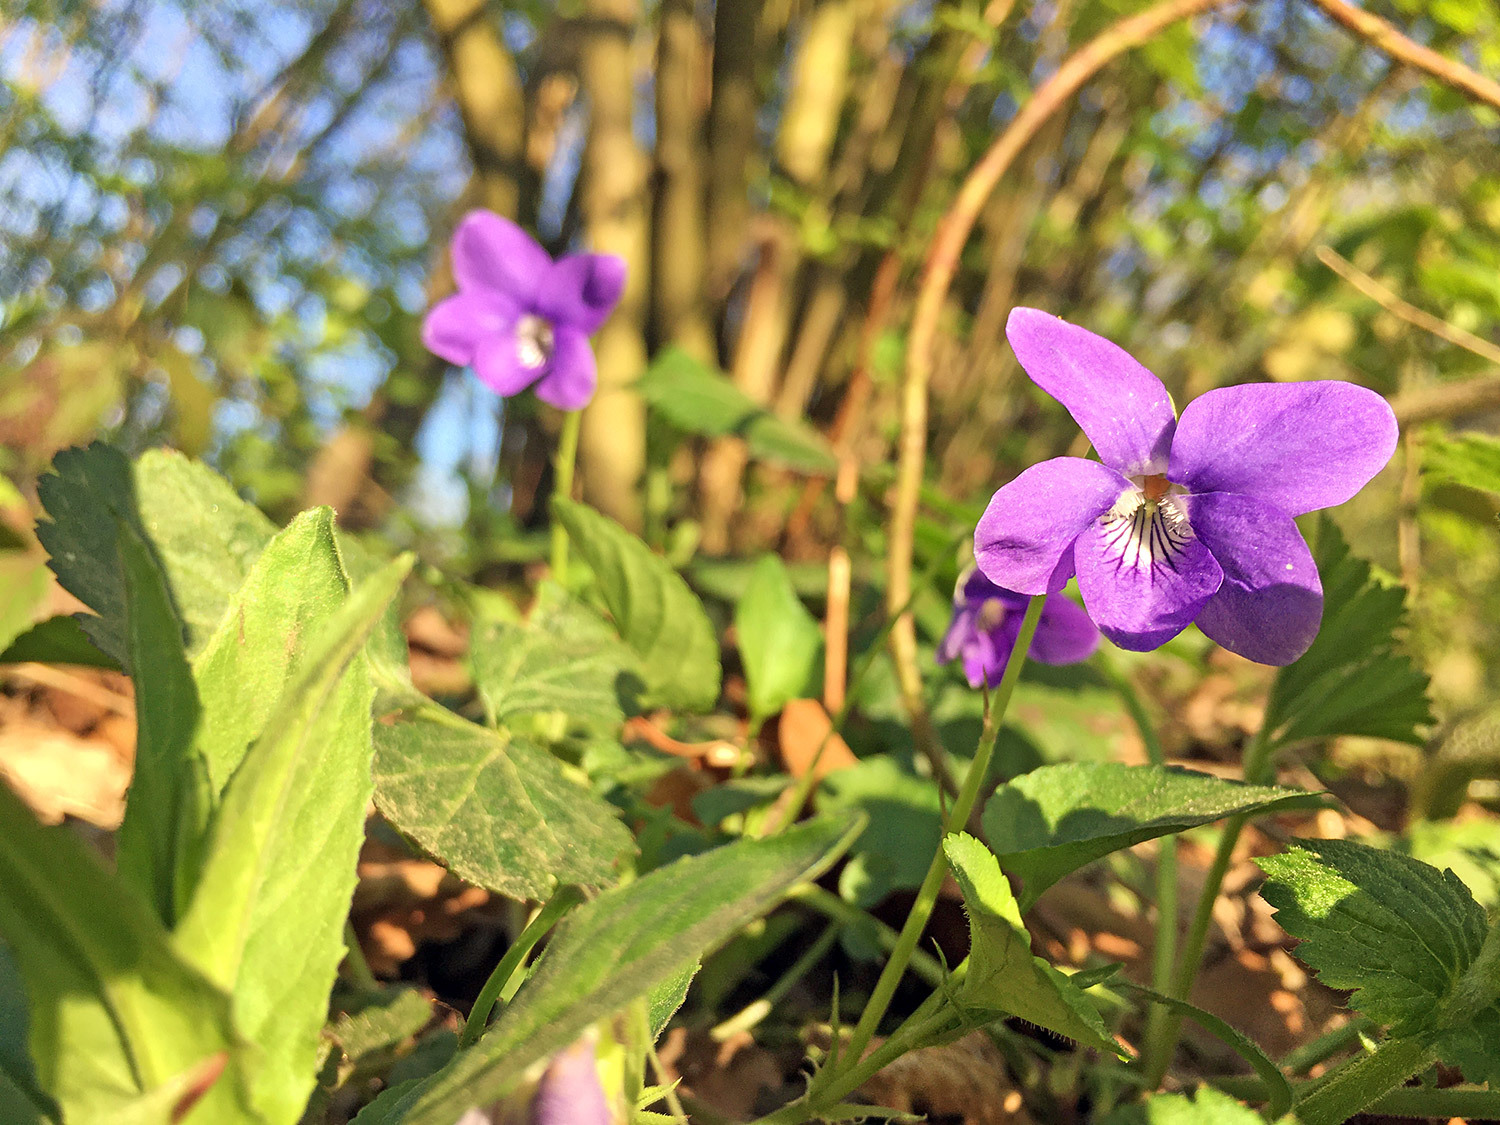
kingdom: Plantae
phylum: Tracheophyta
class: Magnoliopsida
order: Malpighiales
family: Violaceae
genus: Viola
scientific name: Viola riviniana
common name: Common dog-violet
